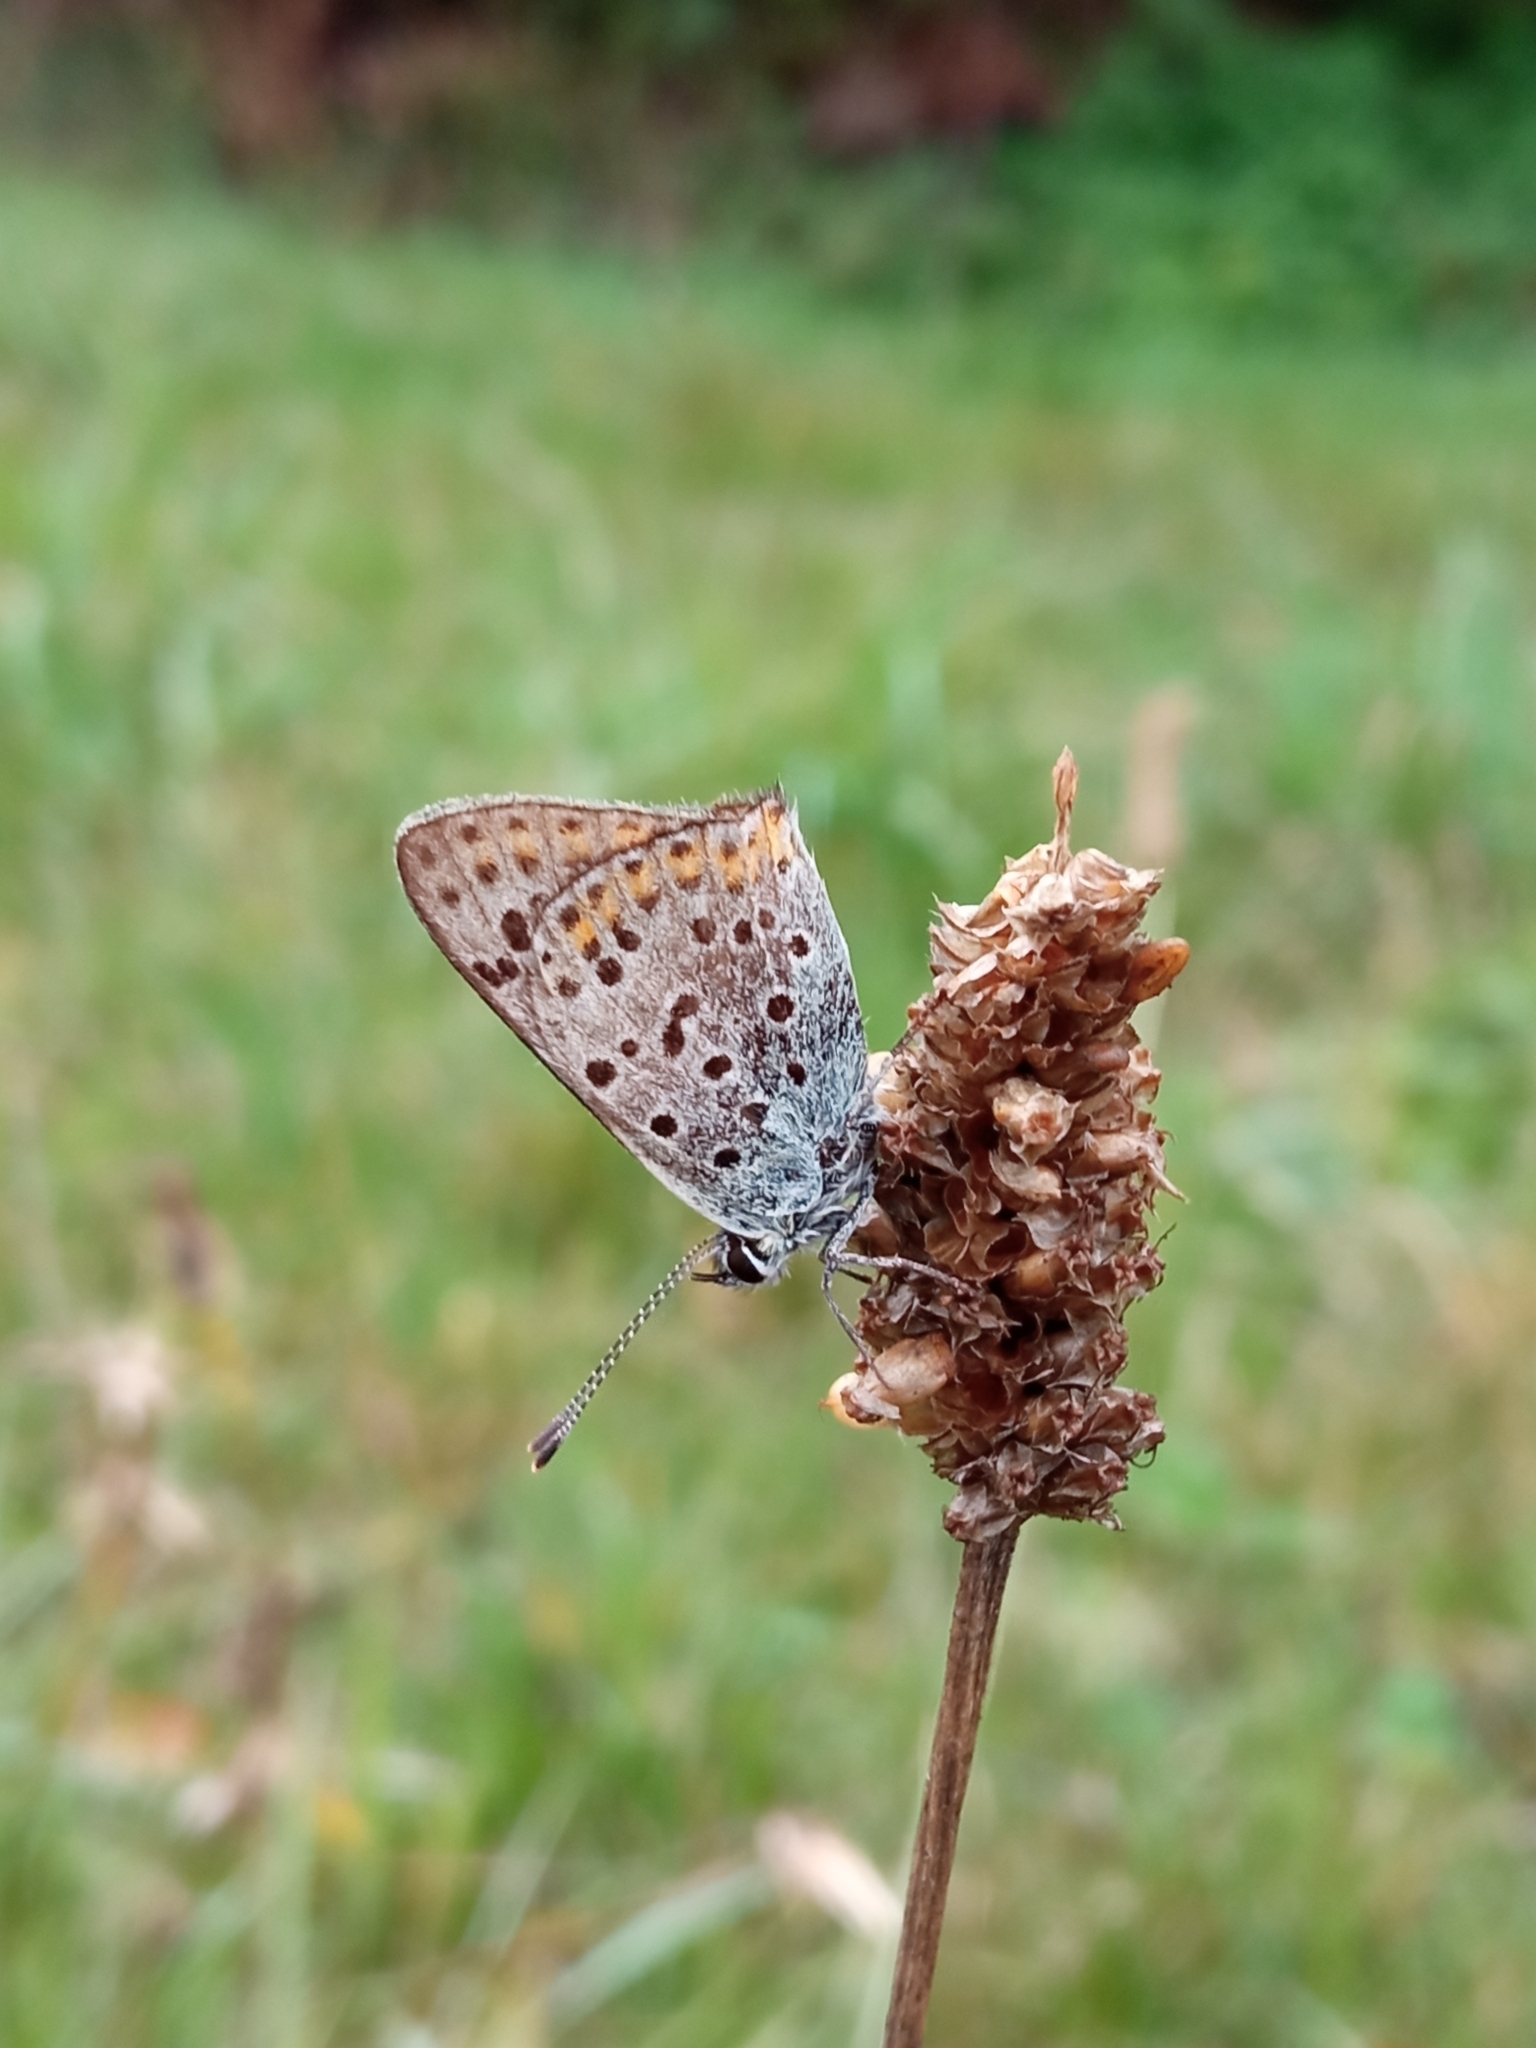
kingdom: Animalia
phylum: Arthropoda
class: Insecta
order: Lepidoptera
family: Lycaenidae
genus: Loweia
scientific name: Loweia tityrus
